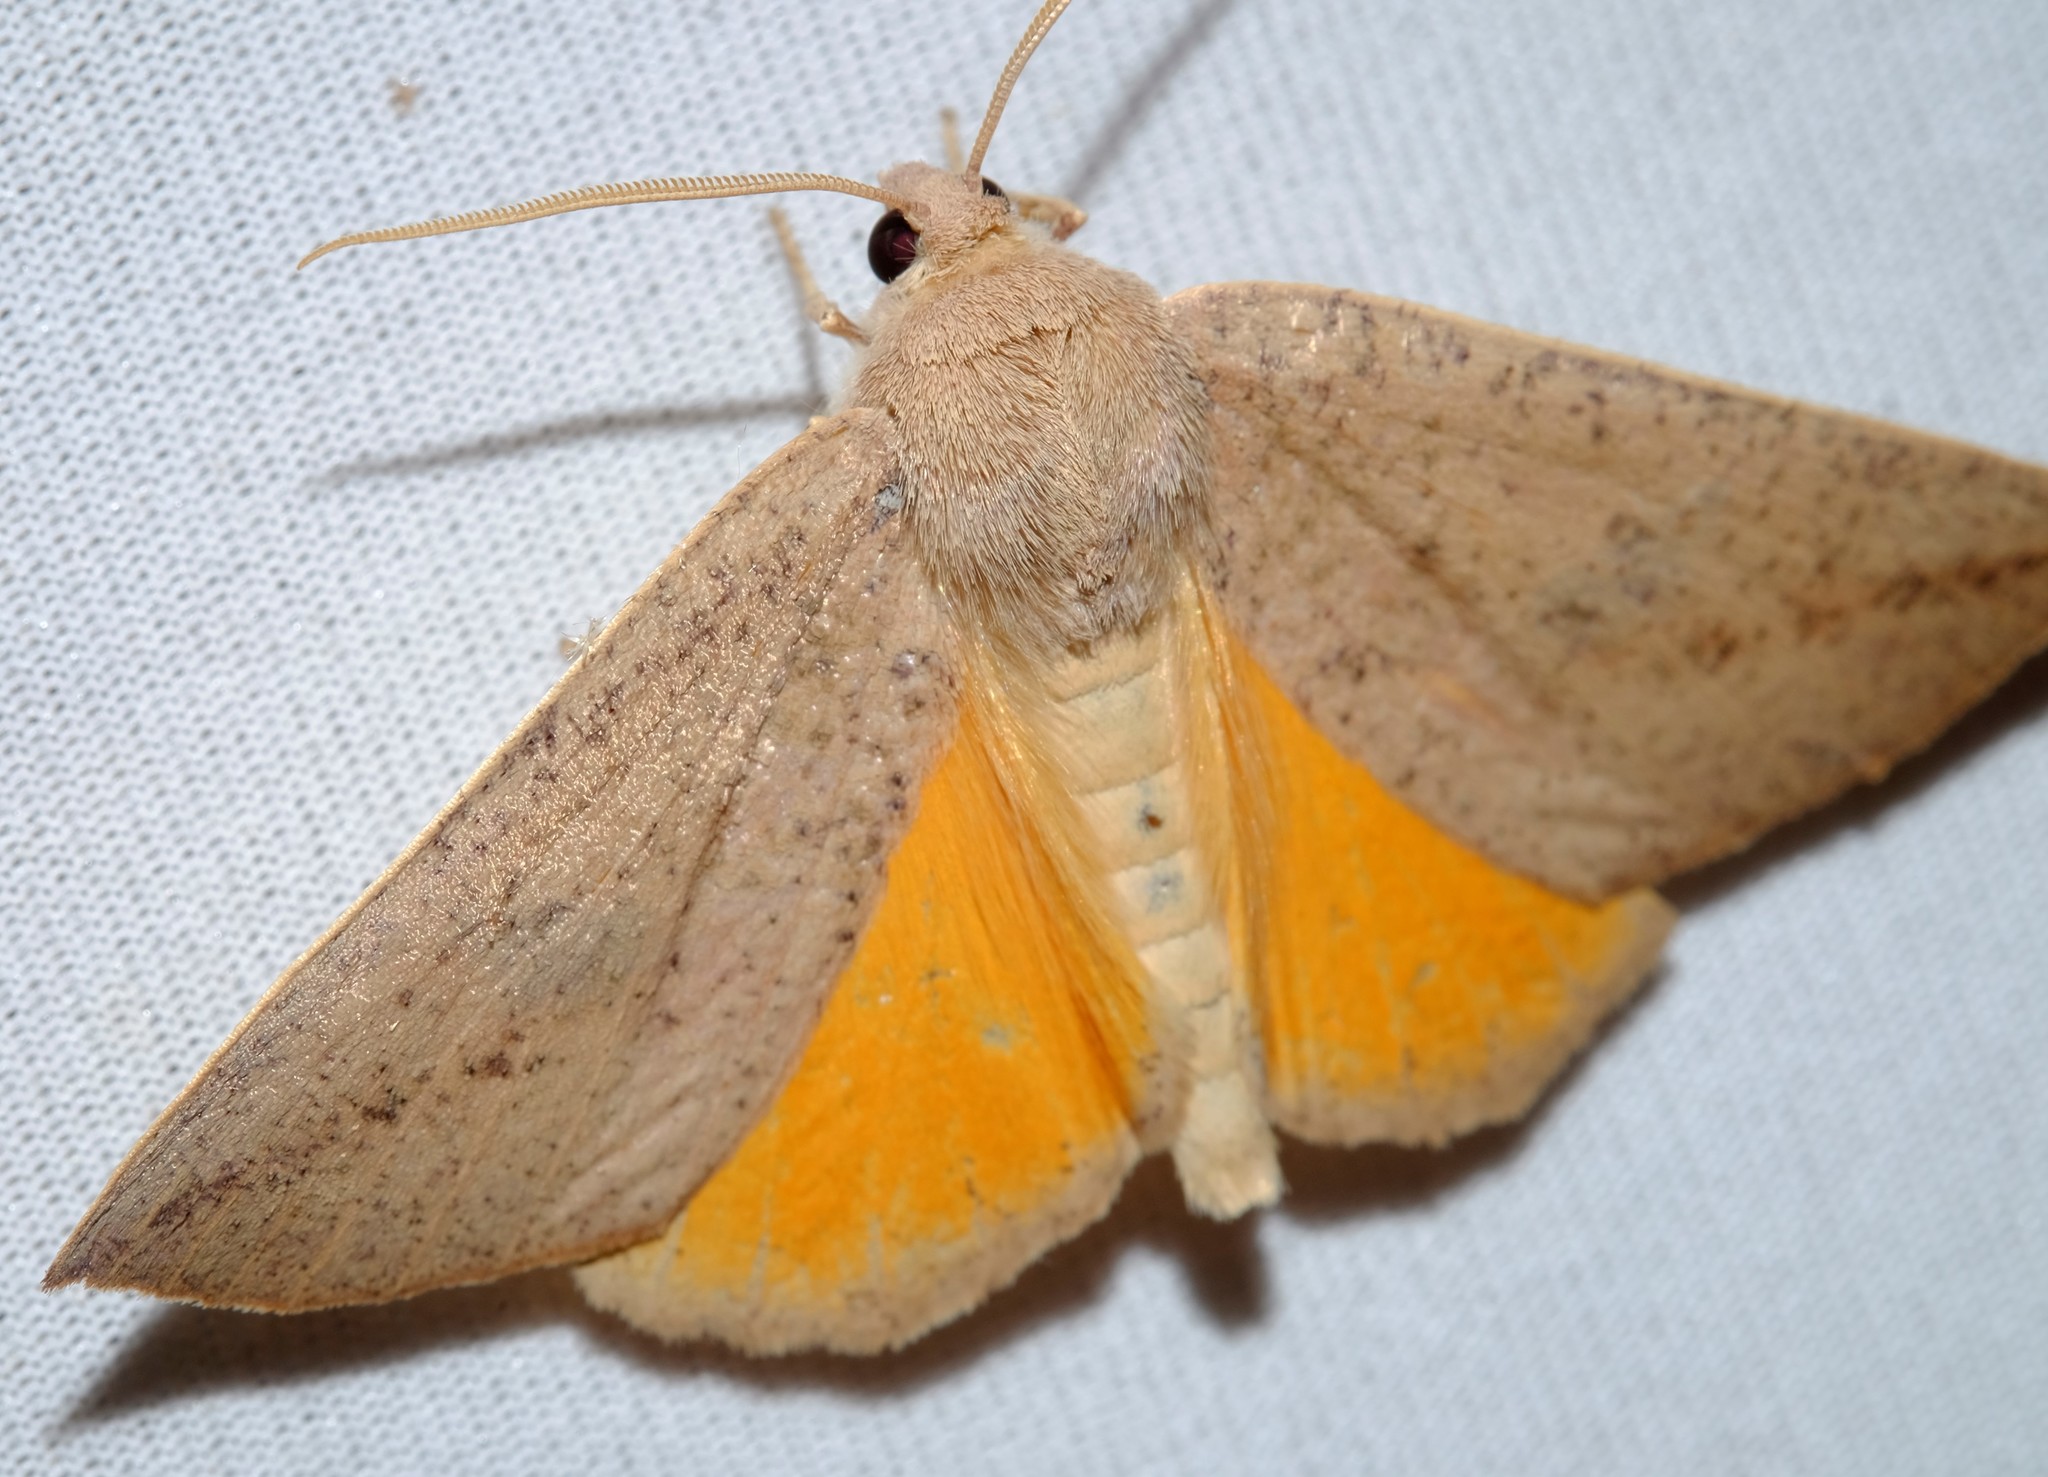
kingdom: Animalia
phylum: Arthropoda
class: Insecta
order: Lepidoptera
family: Geometridae
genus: Mnesampela
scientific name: Mnesampela heliochrysa
